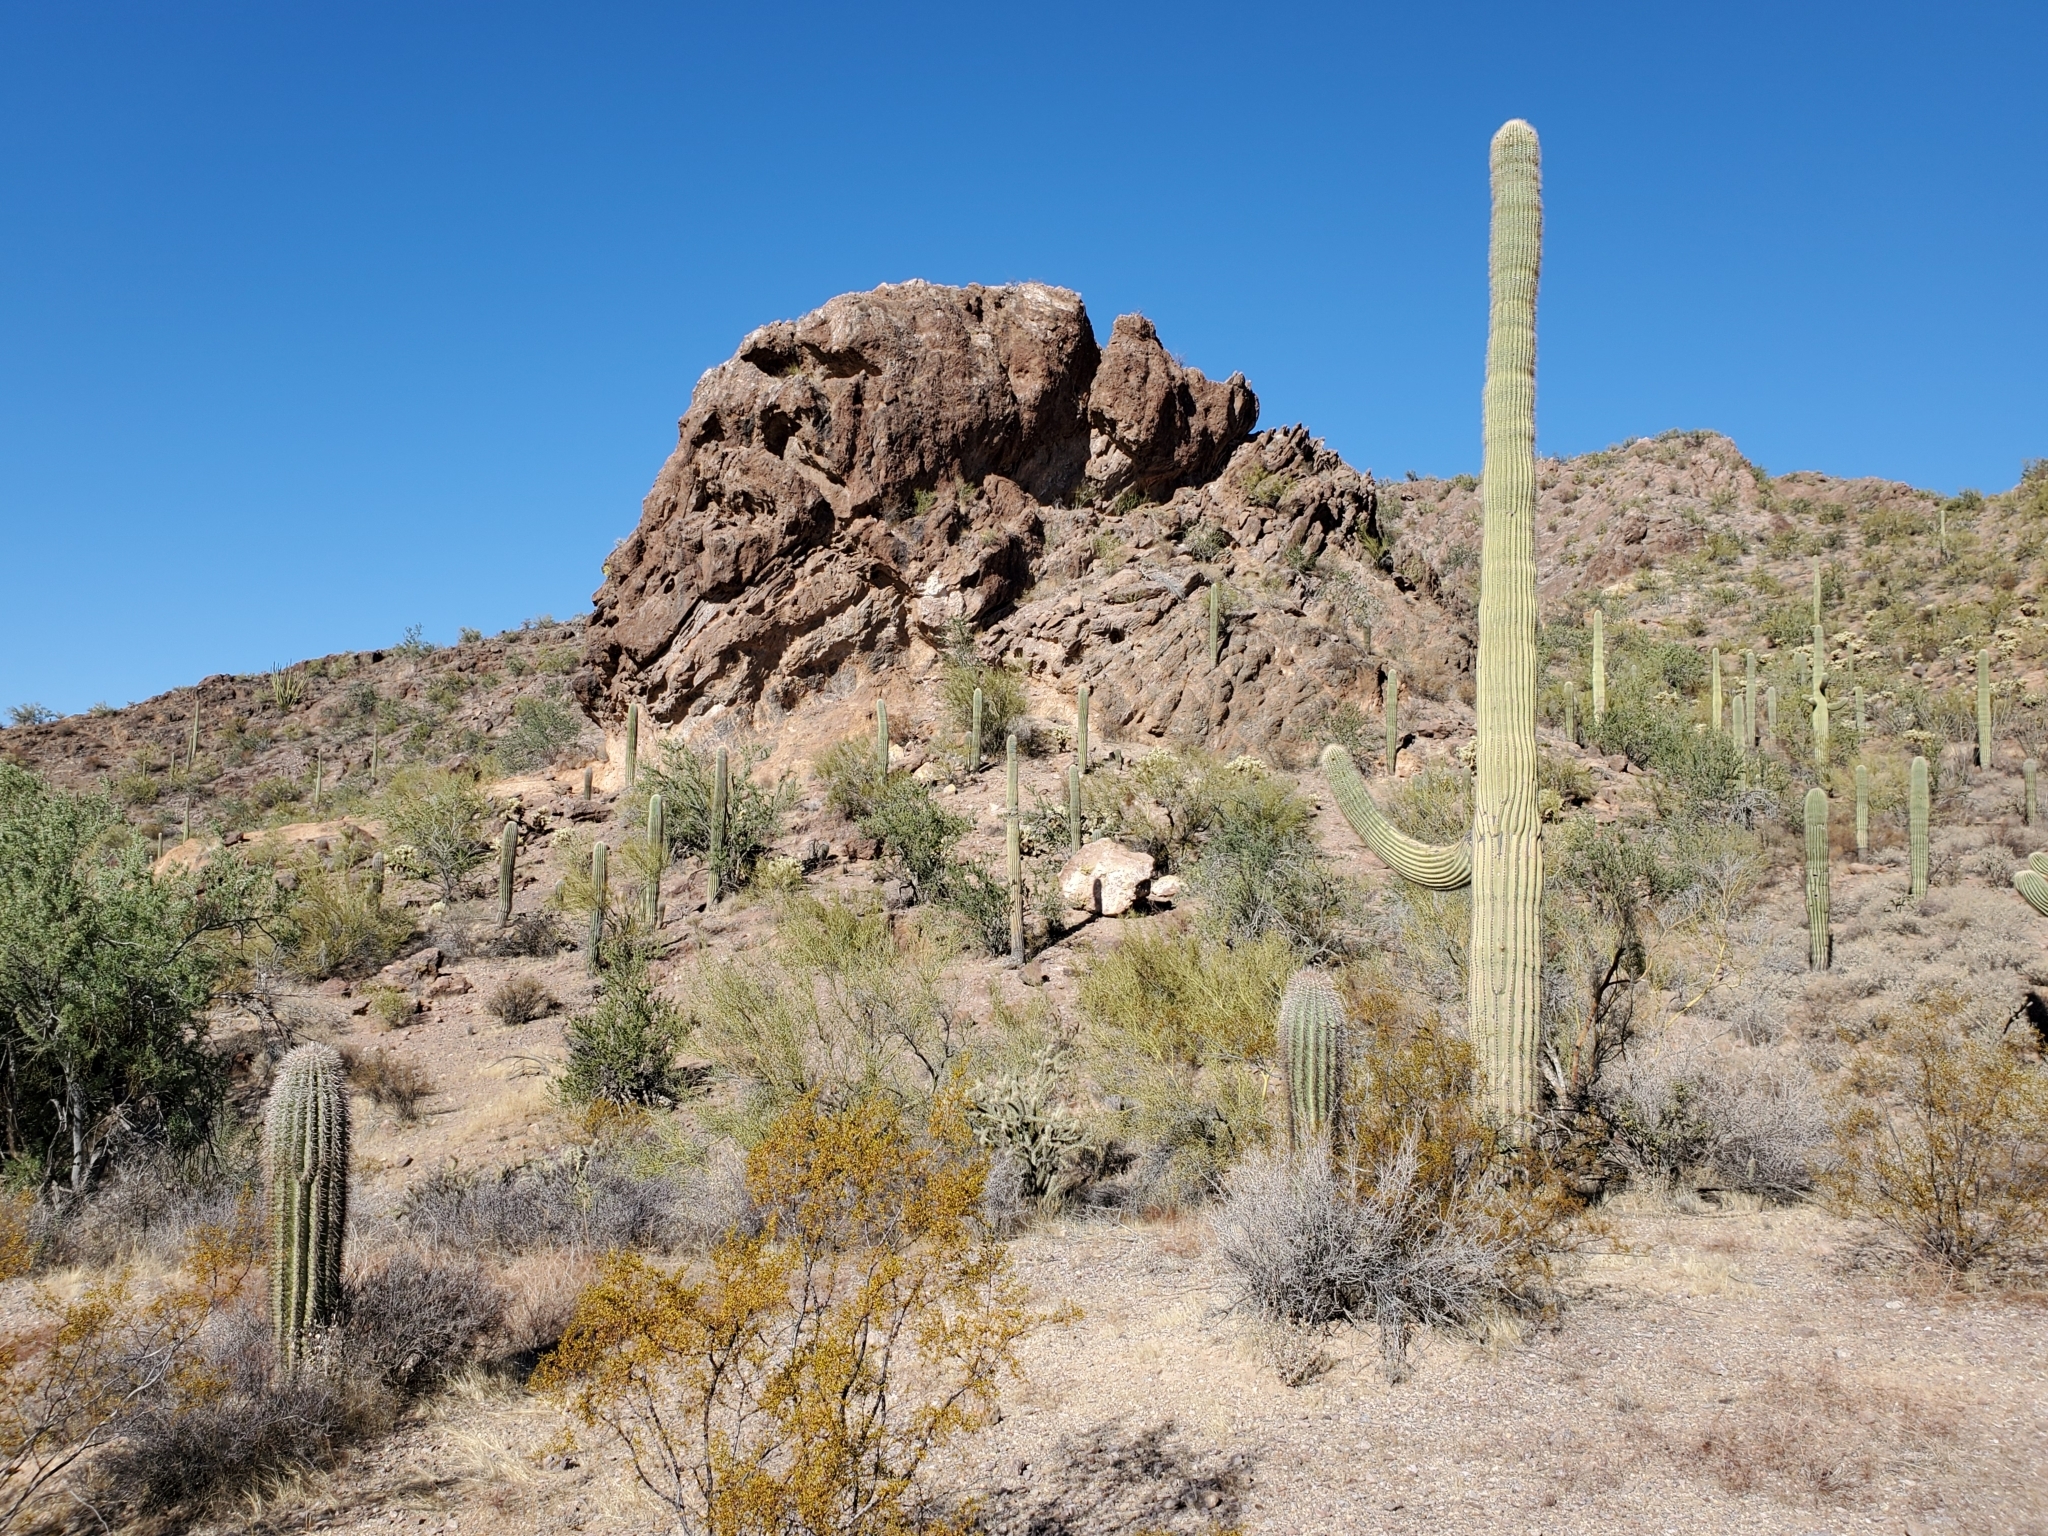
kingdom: Plantae
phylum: Tracheophyta
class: Magnoliopsida
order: Caryophyllales
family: Cactaceae
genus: Carnegiea
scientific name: Carnegiea gigantea
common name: Saguaro
